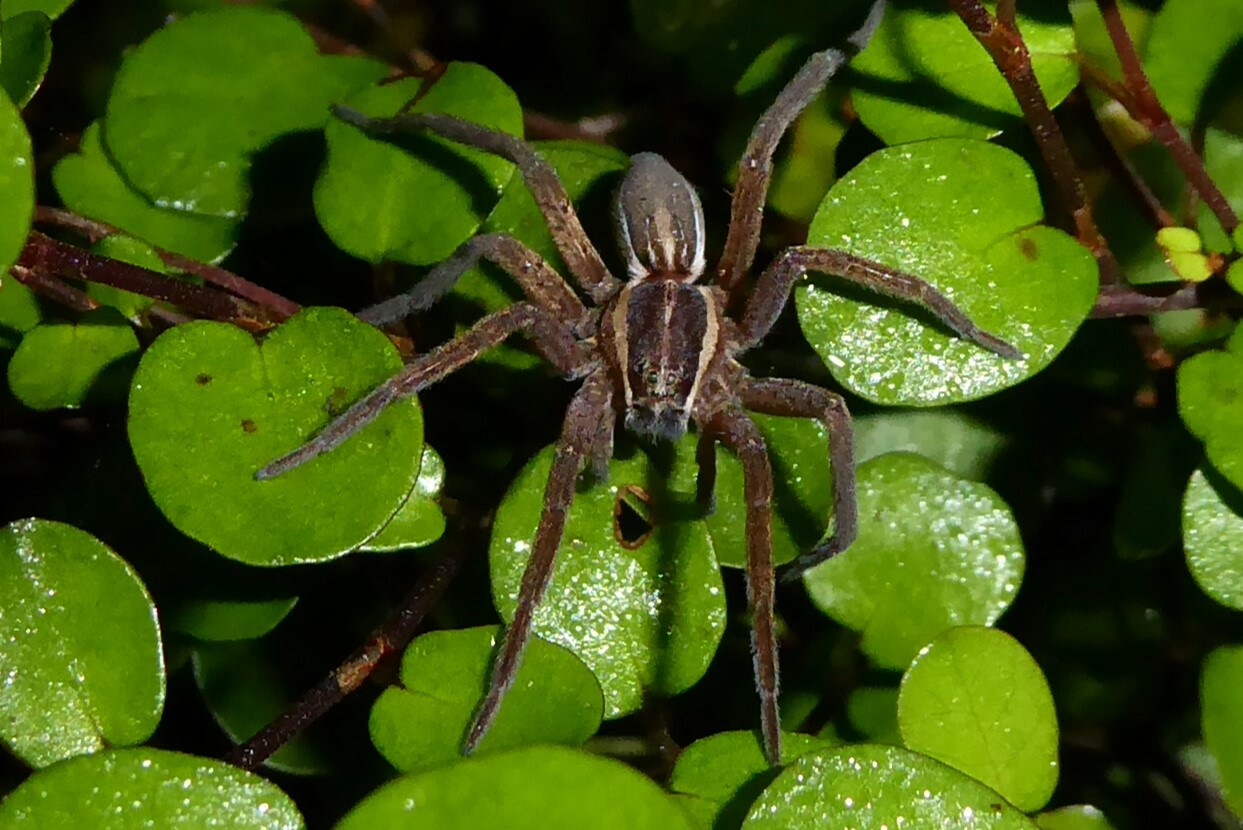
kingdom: Animalia
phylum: Arthropoda
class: Arachnida
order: Araneae
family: Pisauridae
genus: Dolomedes
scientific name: Dolomedes minor
